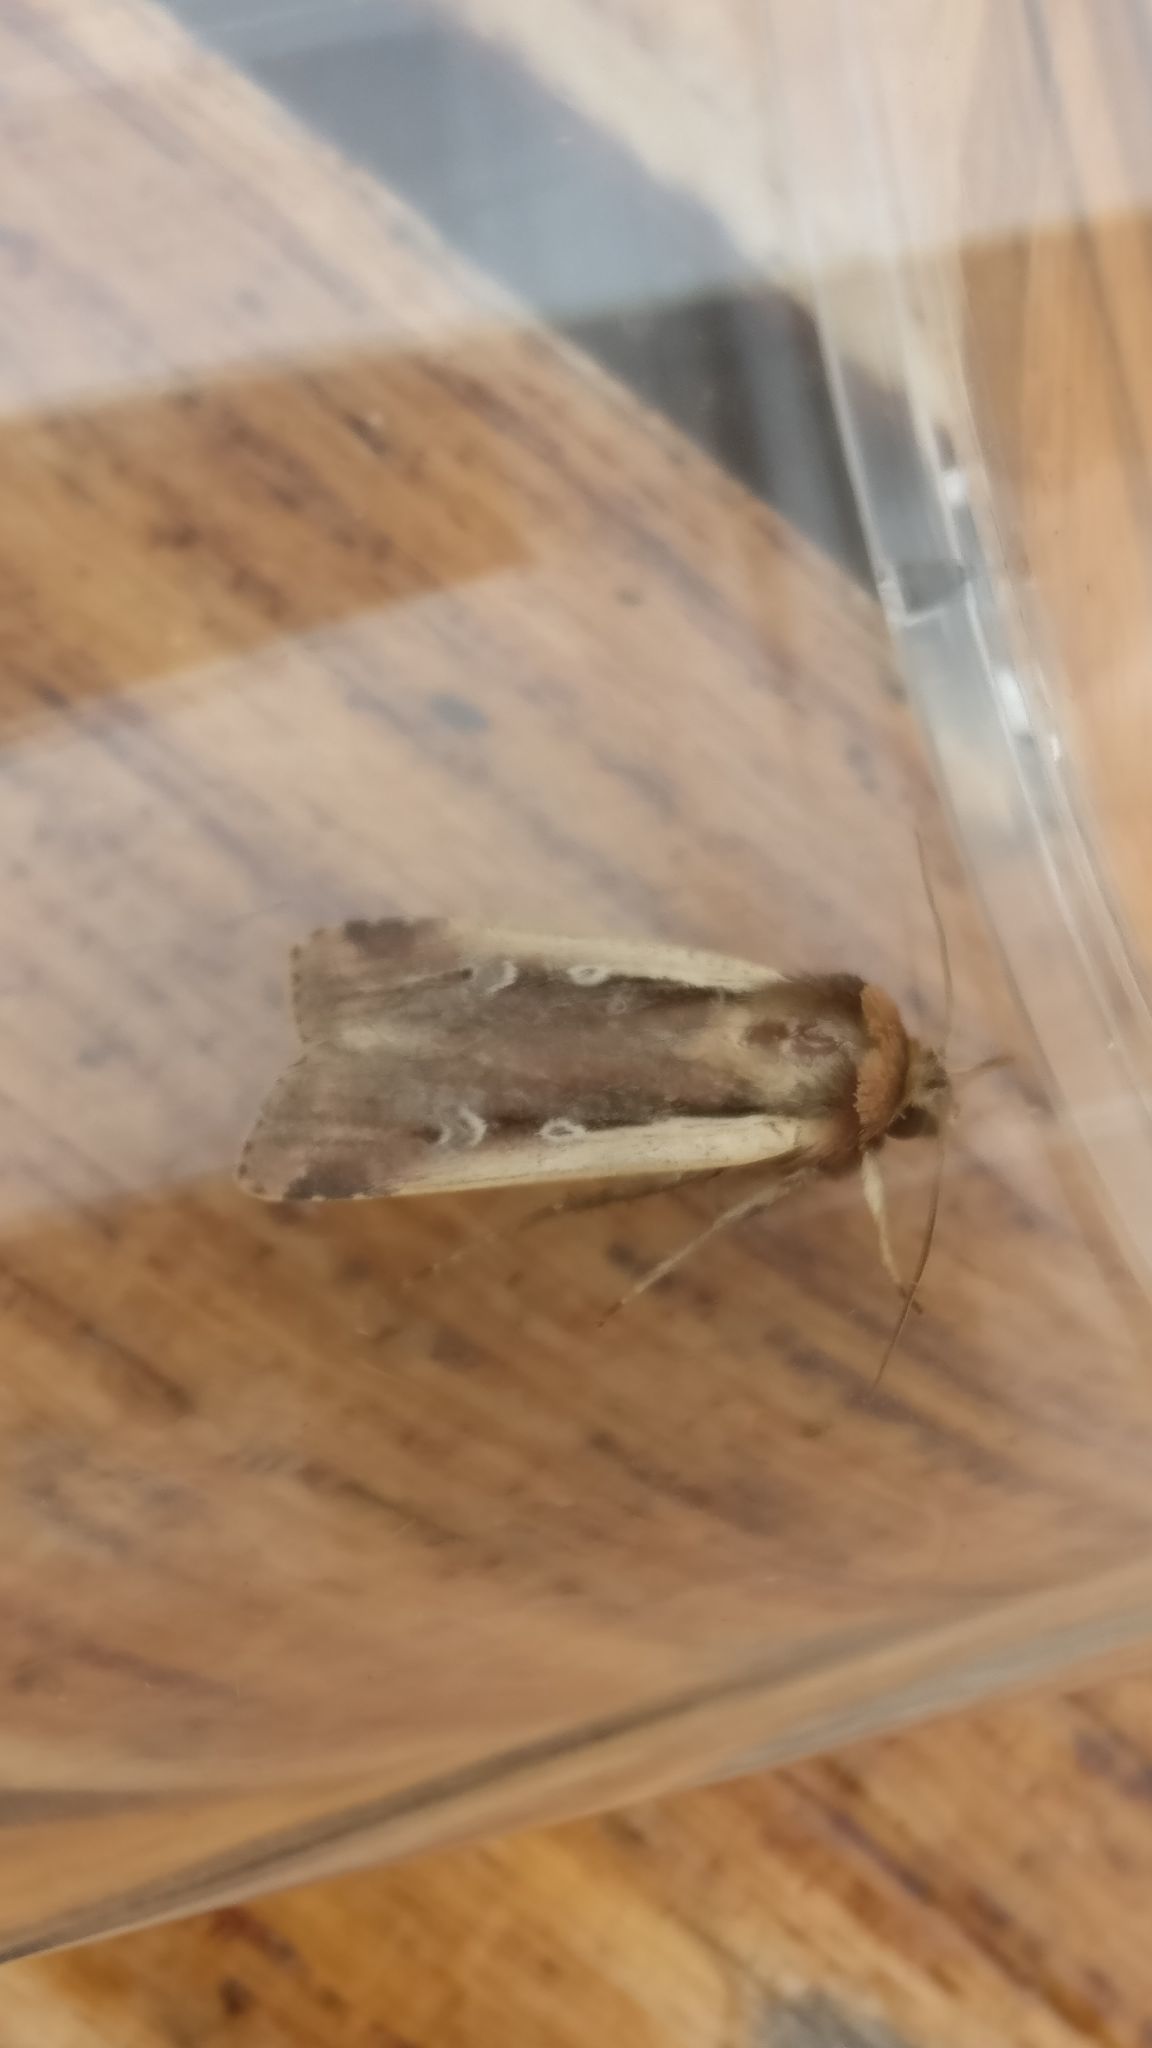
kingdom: Animalia
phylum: Arthropoda
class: Insecta
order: Lepidoptera
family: Noctuidae
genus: Ochropleura
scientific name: Ochropleura plecta
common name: Flame shoulder
